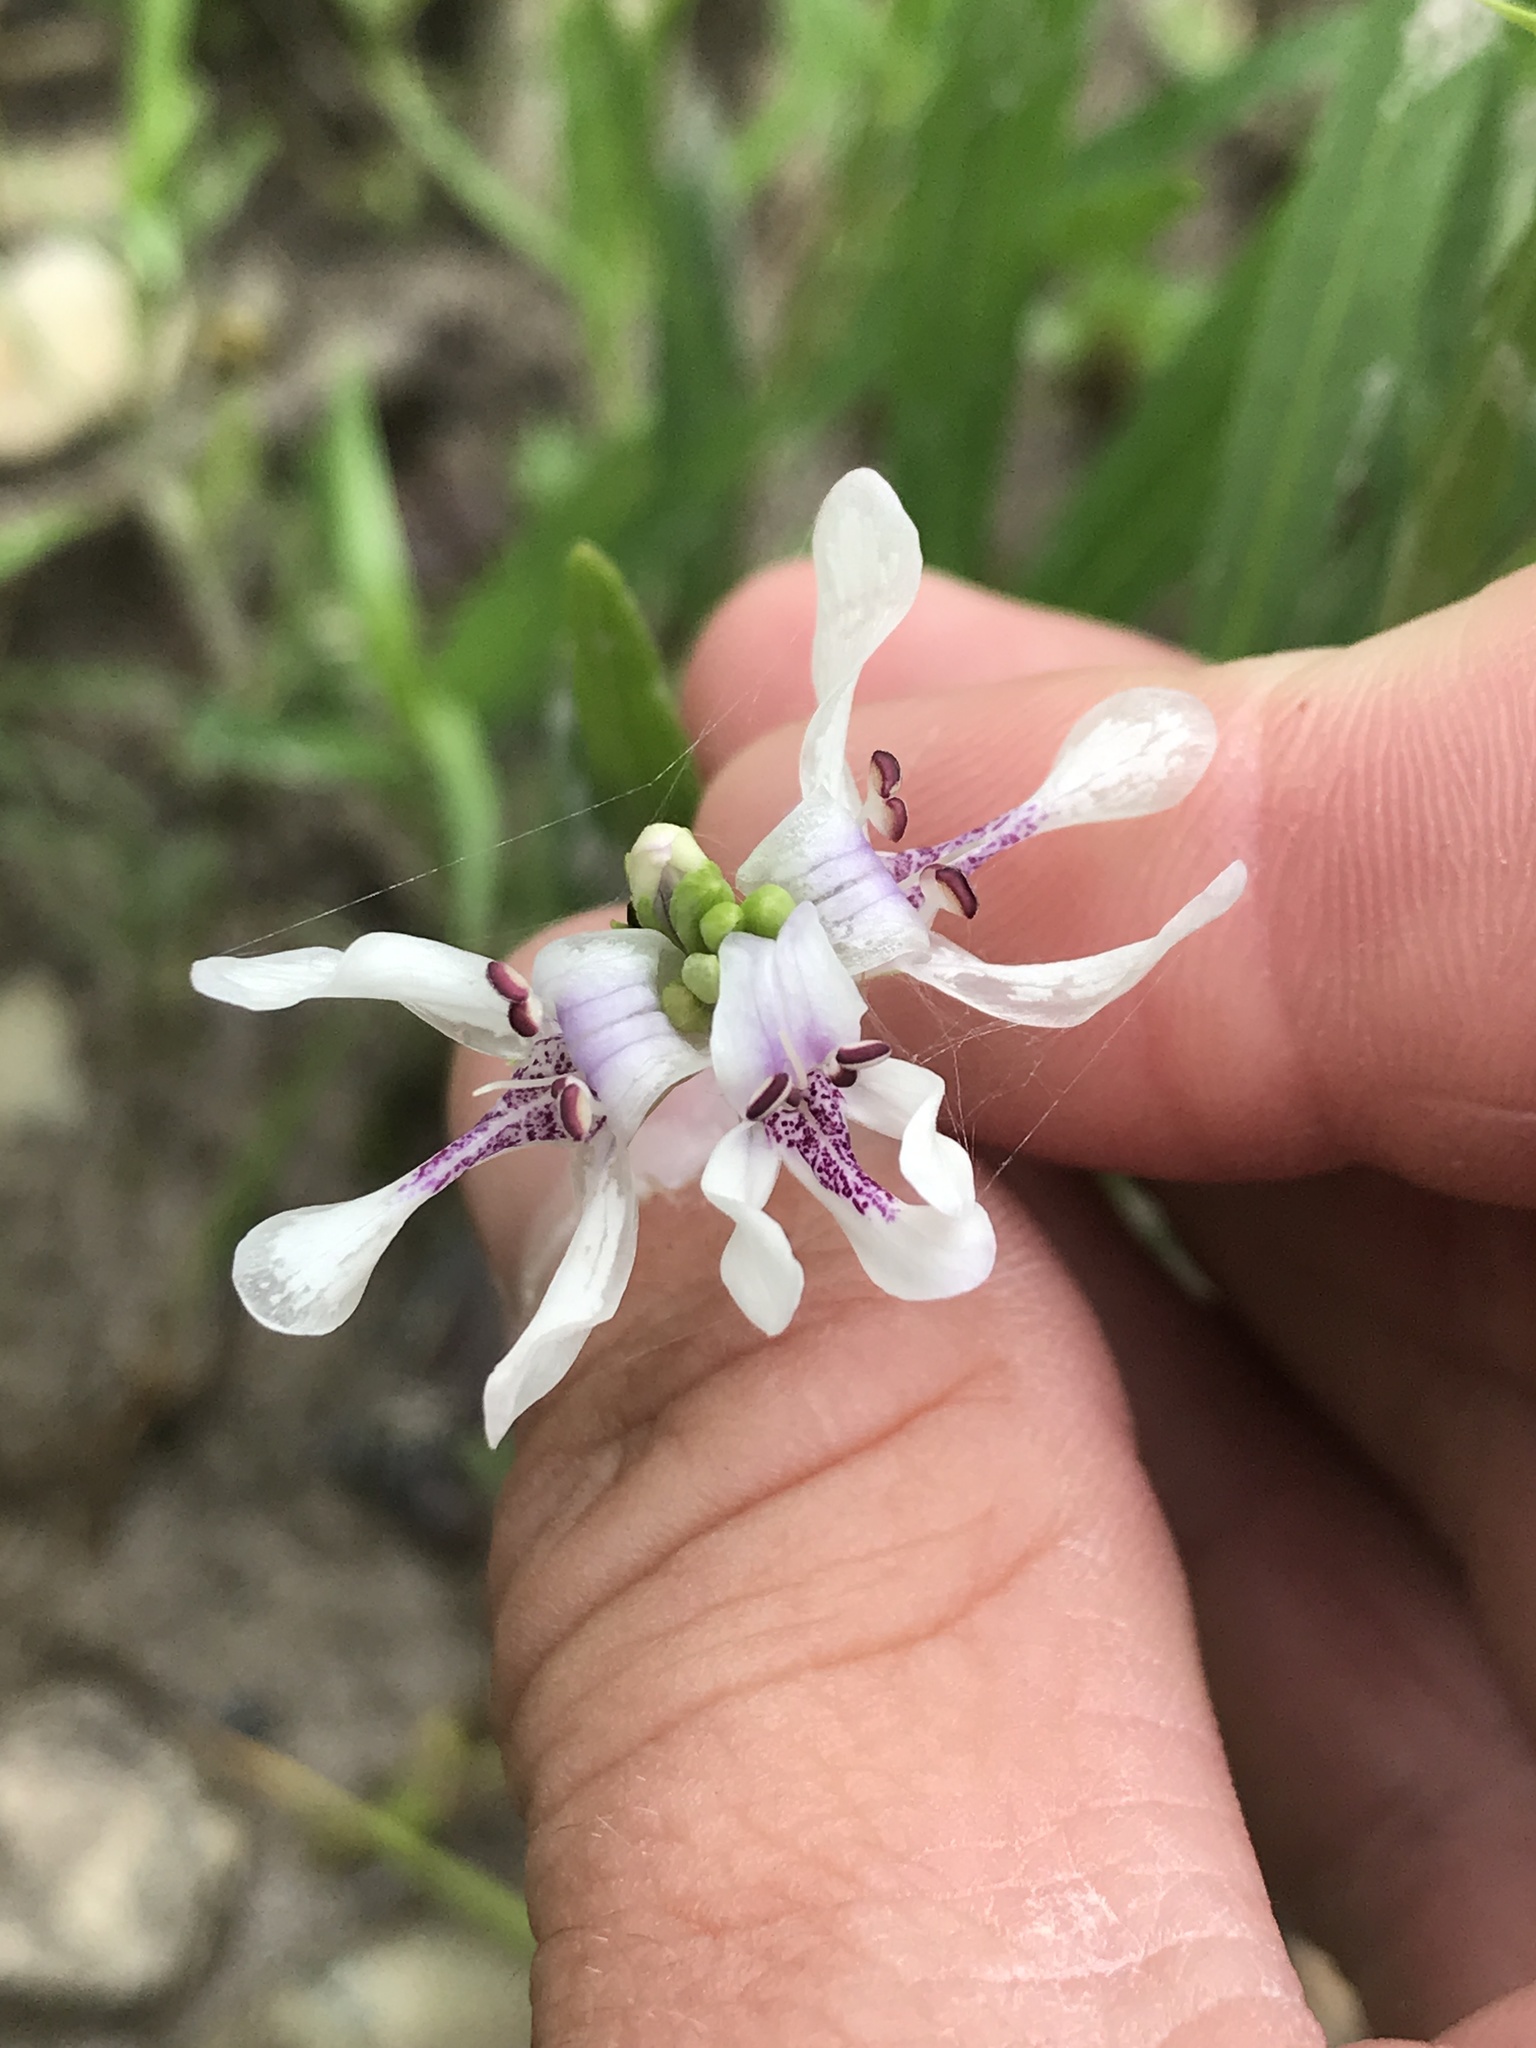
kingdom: Plantae
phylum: Tracheophyta
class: Magnoliopsida
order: Lamiales
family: Acanthaceae
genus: Dianthera
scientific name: Dianthera americana
